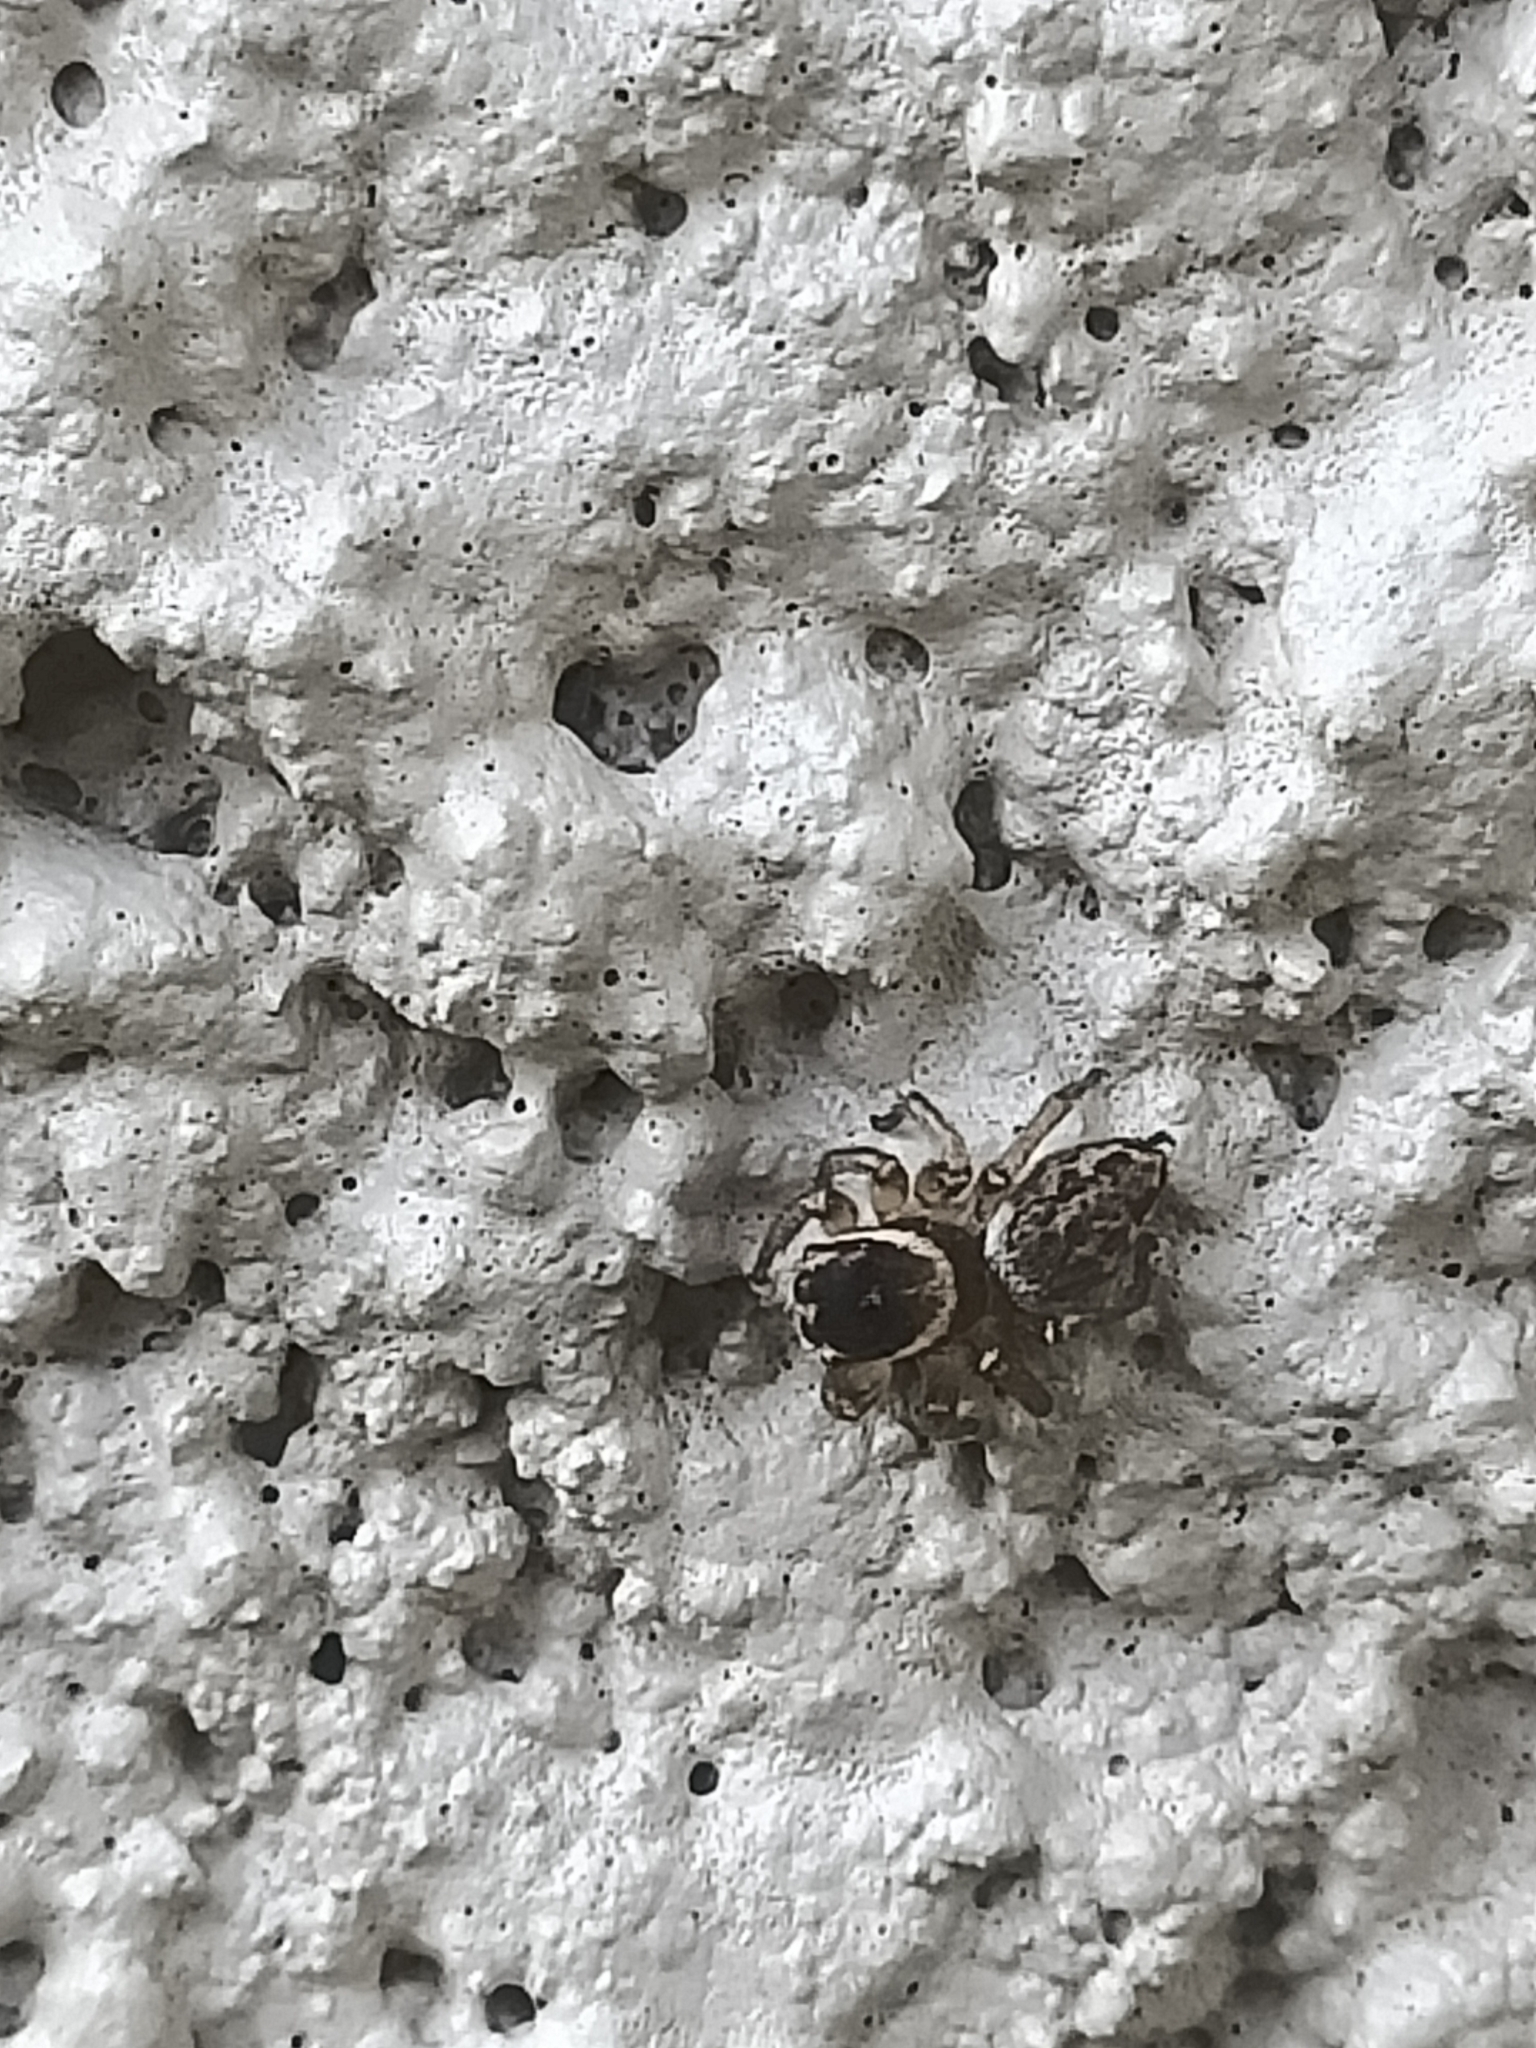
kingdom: Animalia
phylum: Arthropoda
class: Arachnida
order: Araneae
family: Salticidae
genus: Maratus
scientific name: Maratus griseus
